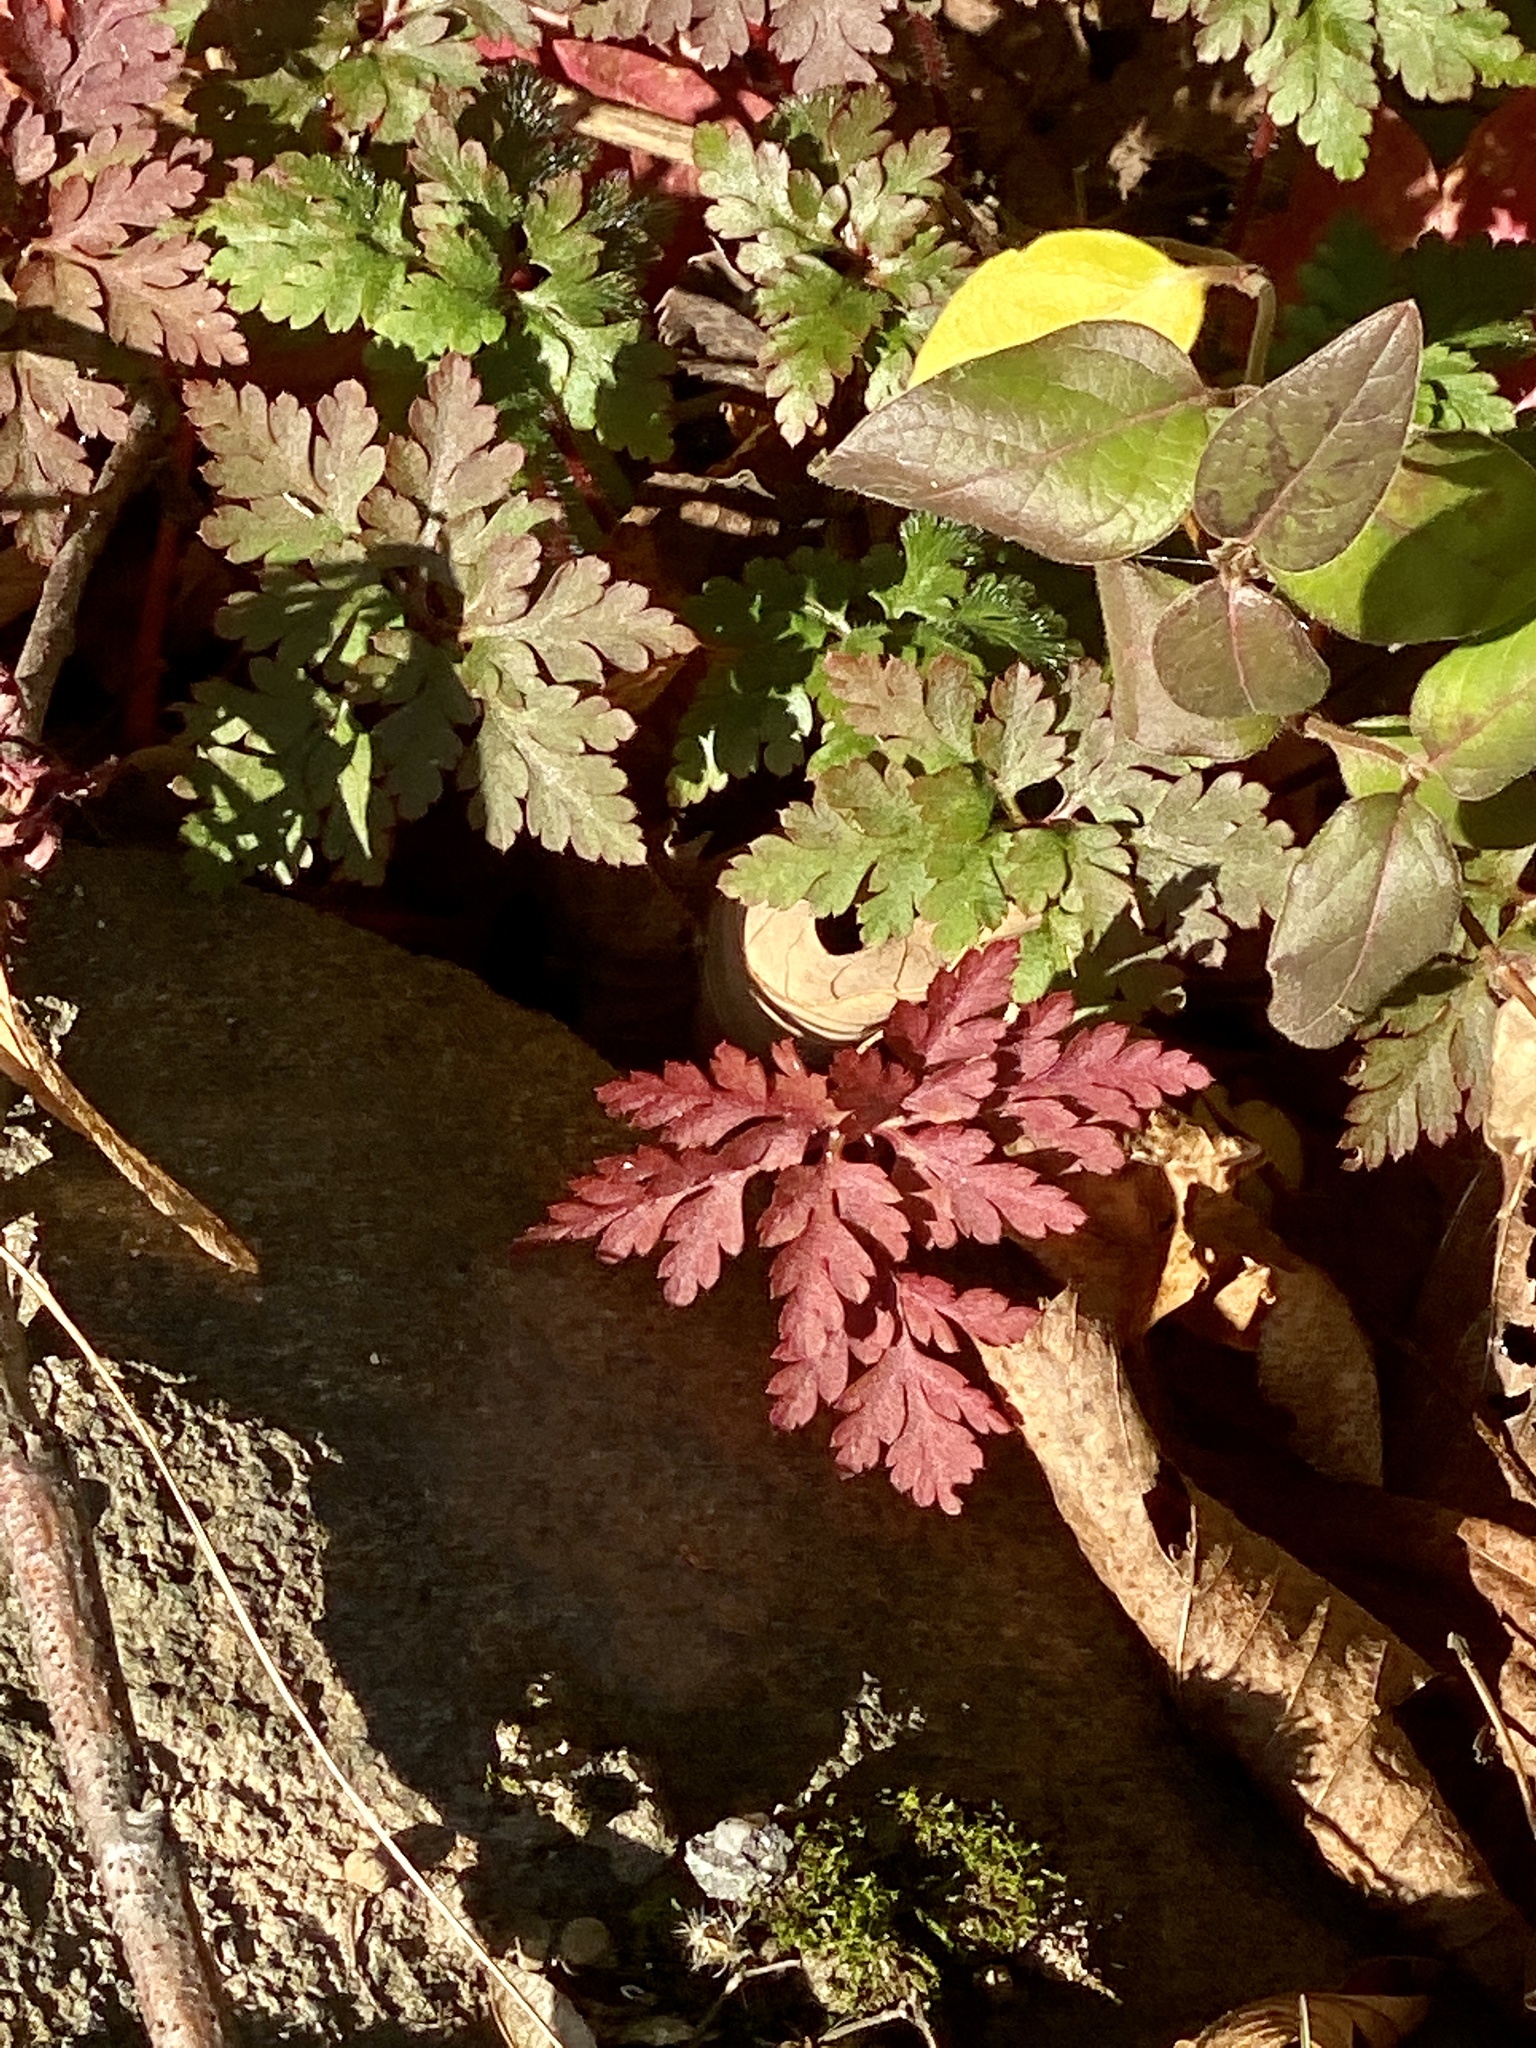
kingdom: Plantae
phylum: Tracheophyta
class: Magnoliopsida
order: Geraniales
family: Geraniaceae
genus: Geranium
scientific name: Geranium robertianum
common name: Herb-robert
